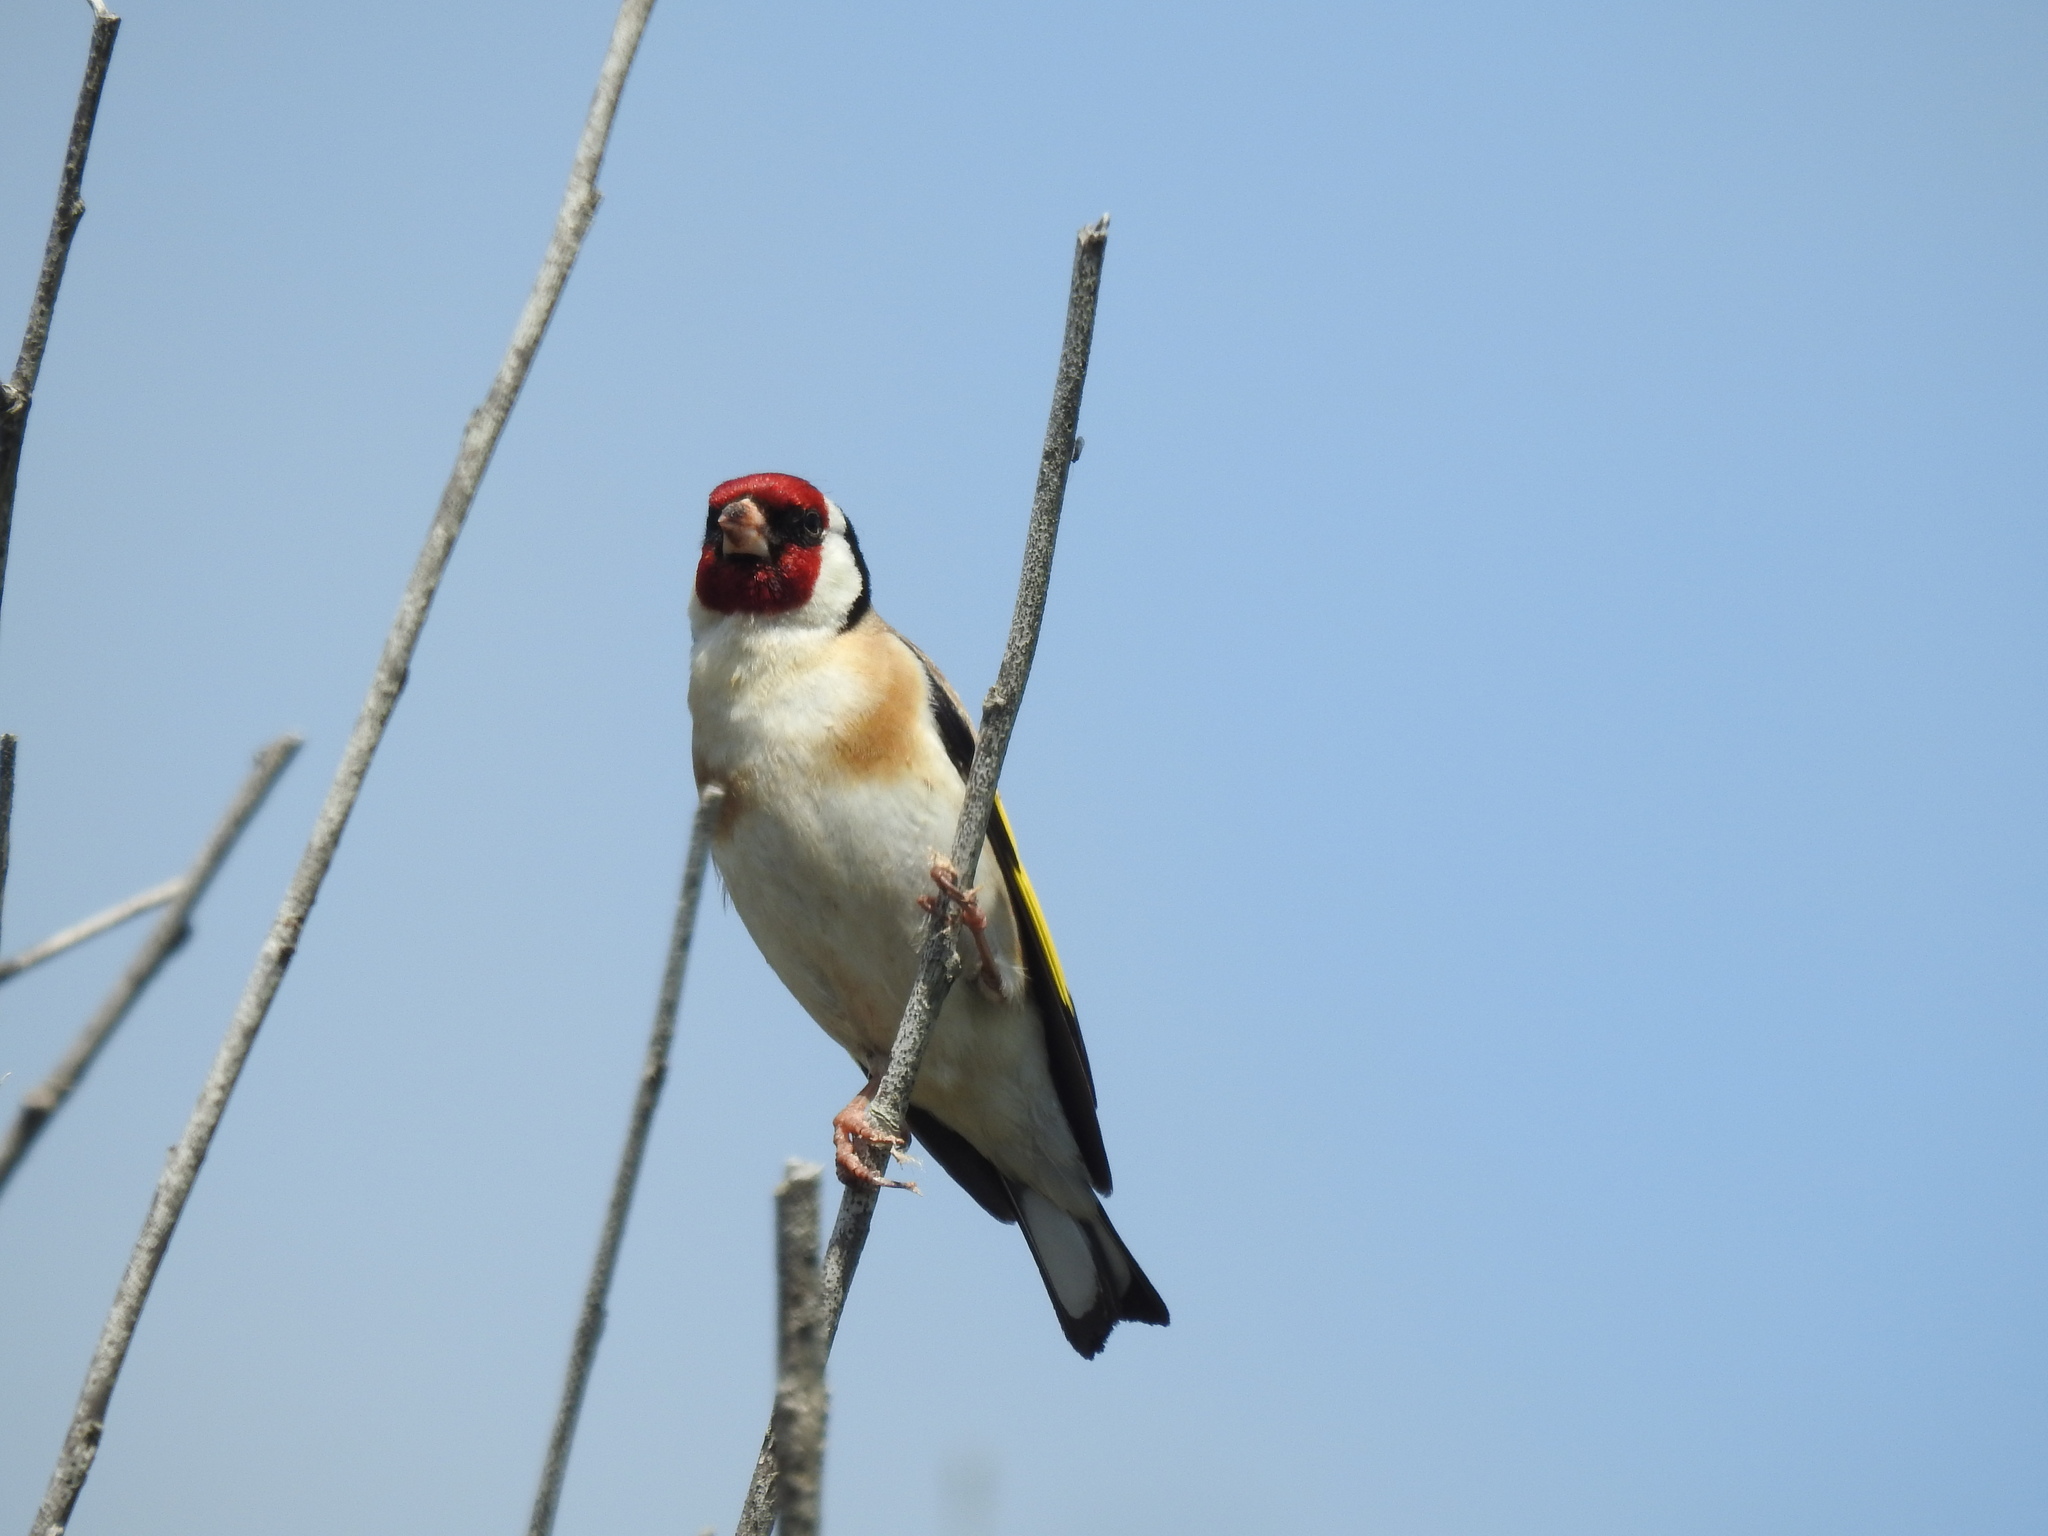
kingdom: Animalia
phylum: Chordata
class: Aves
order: Passeriformes
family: Fringillidae
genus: Carduelis
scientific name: Carduelis carduelis
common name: European goldfinch
